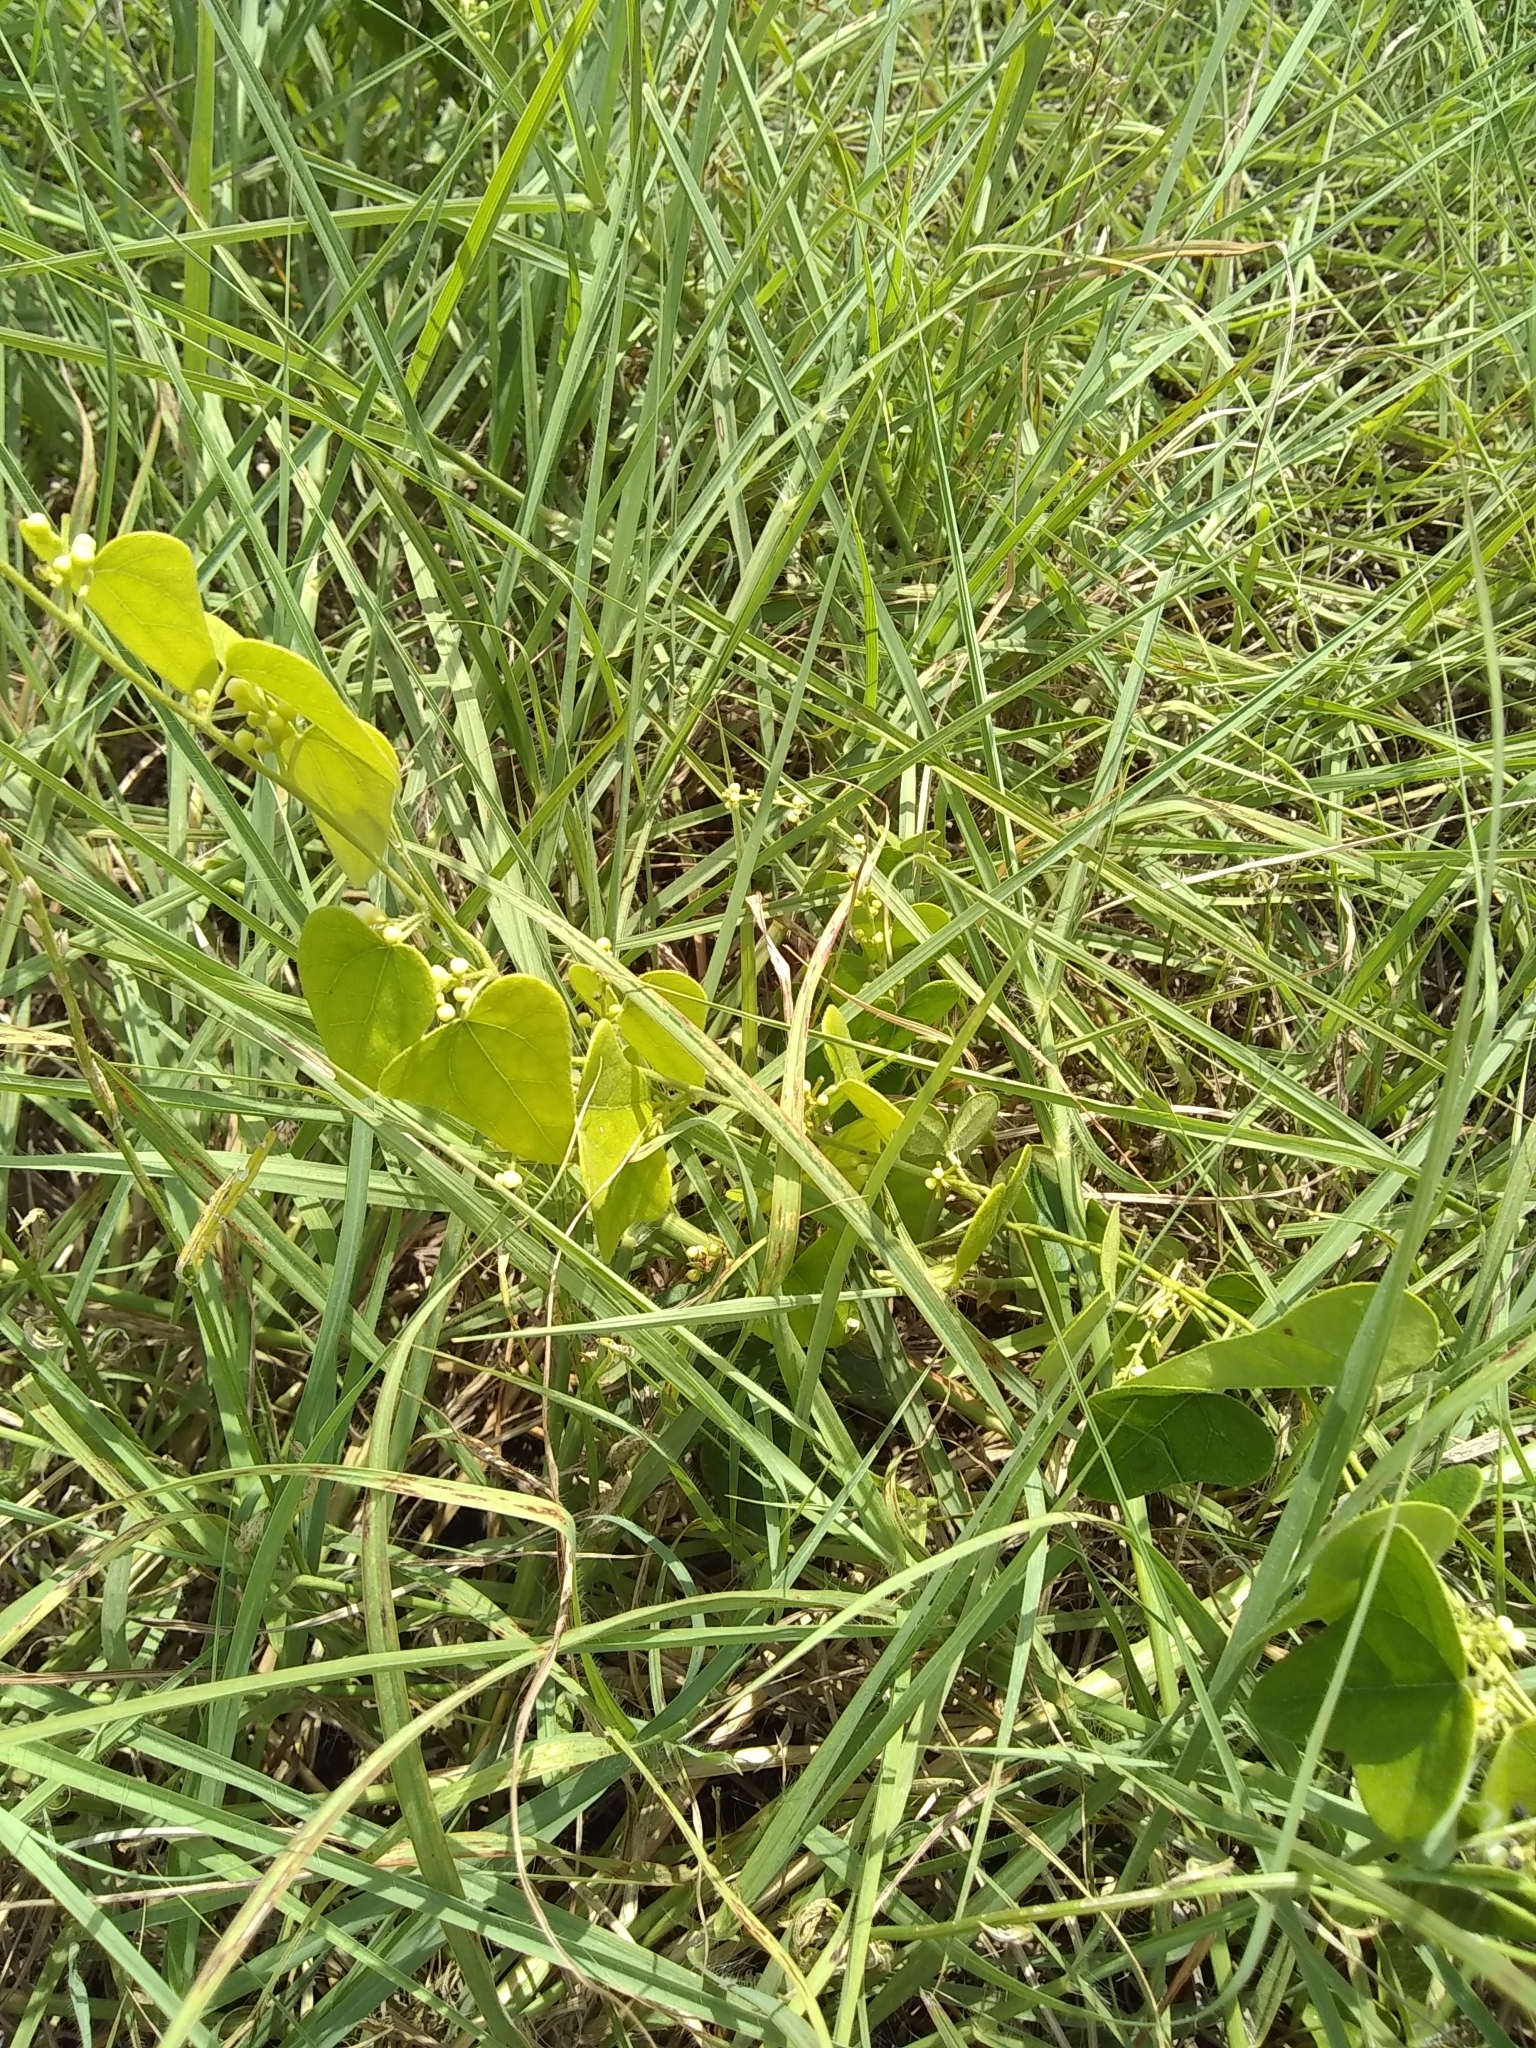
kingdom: Plantae
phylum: Tracheophyta
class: Magnoliopsida
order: Ranunculales
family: Menispermaceae
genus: Cocculus
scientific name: Cocculus carolinus
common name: Carolina moonseed
